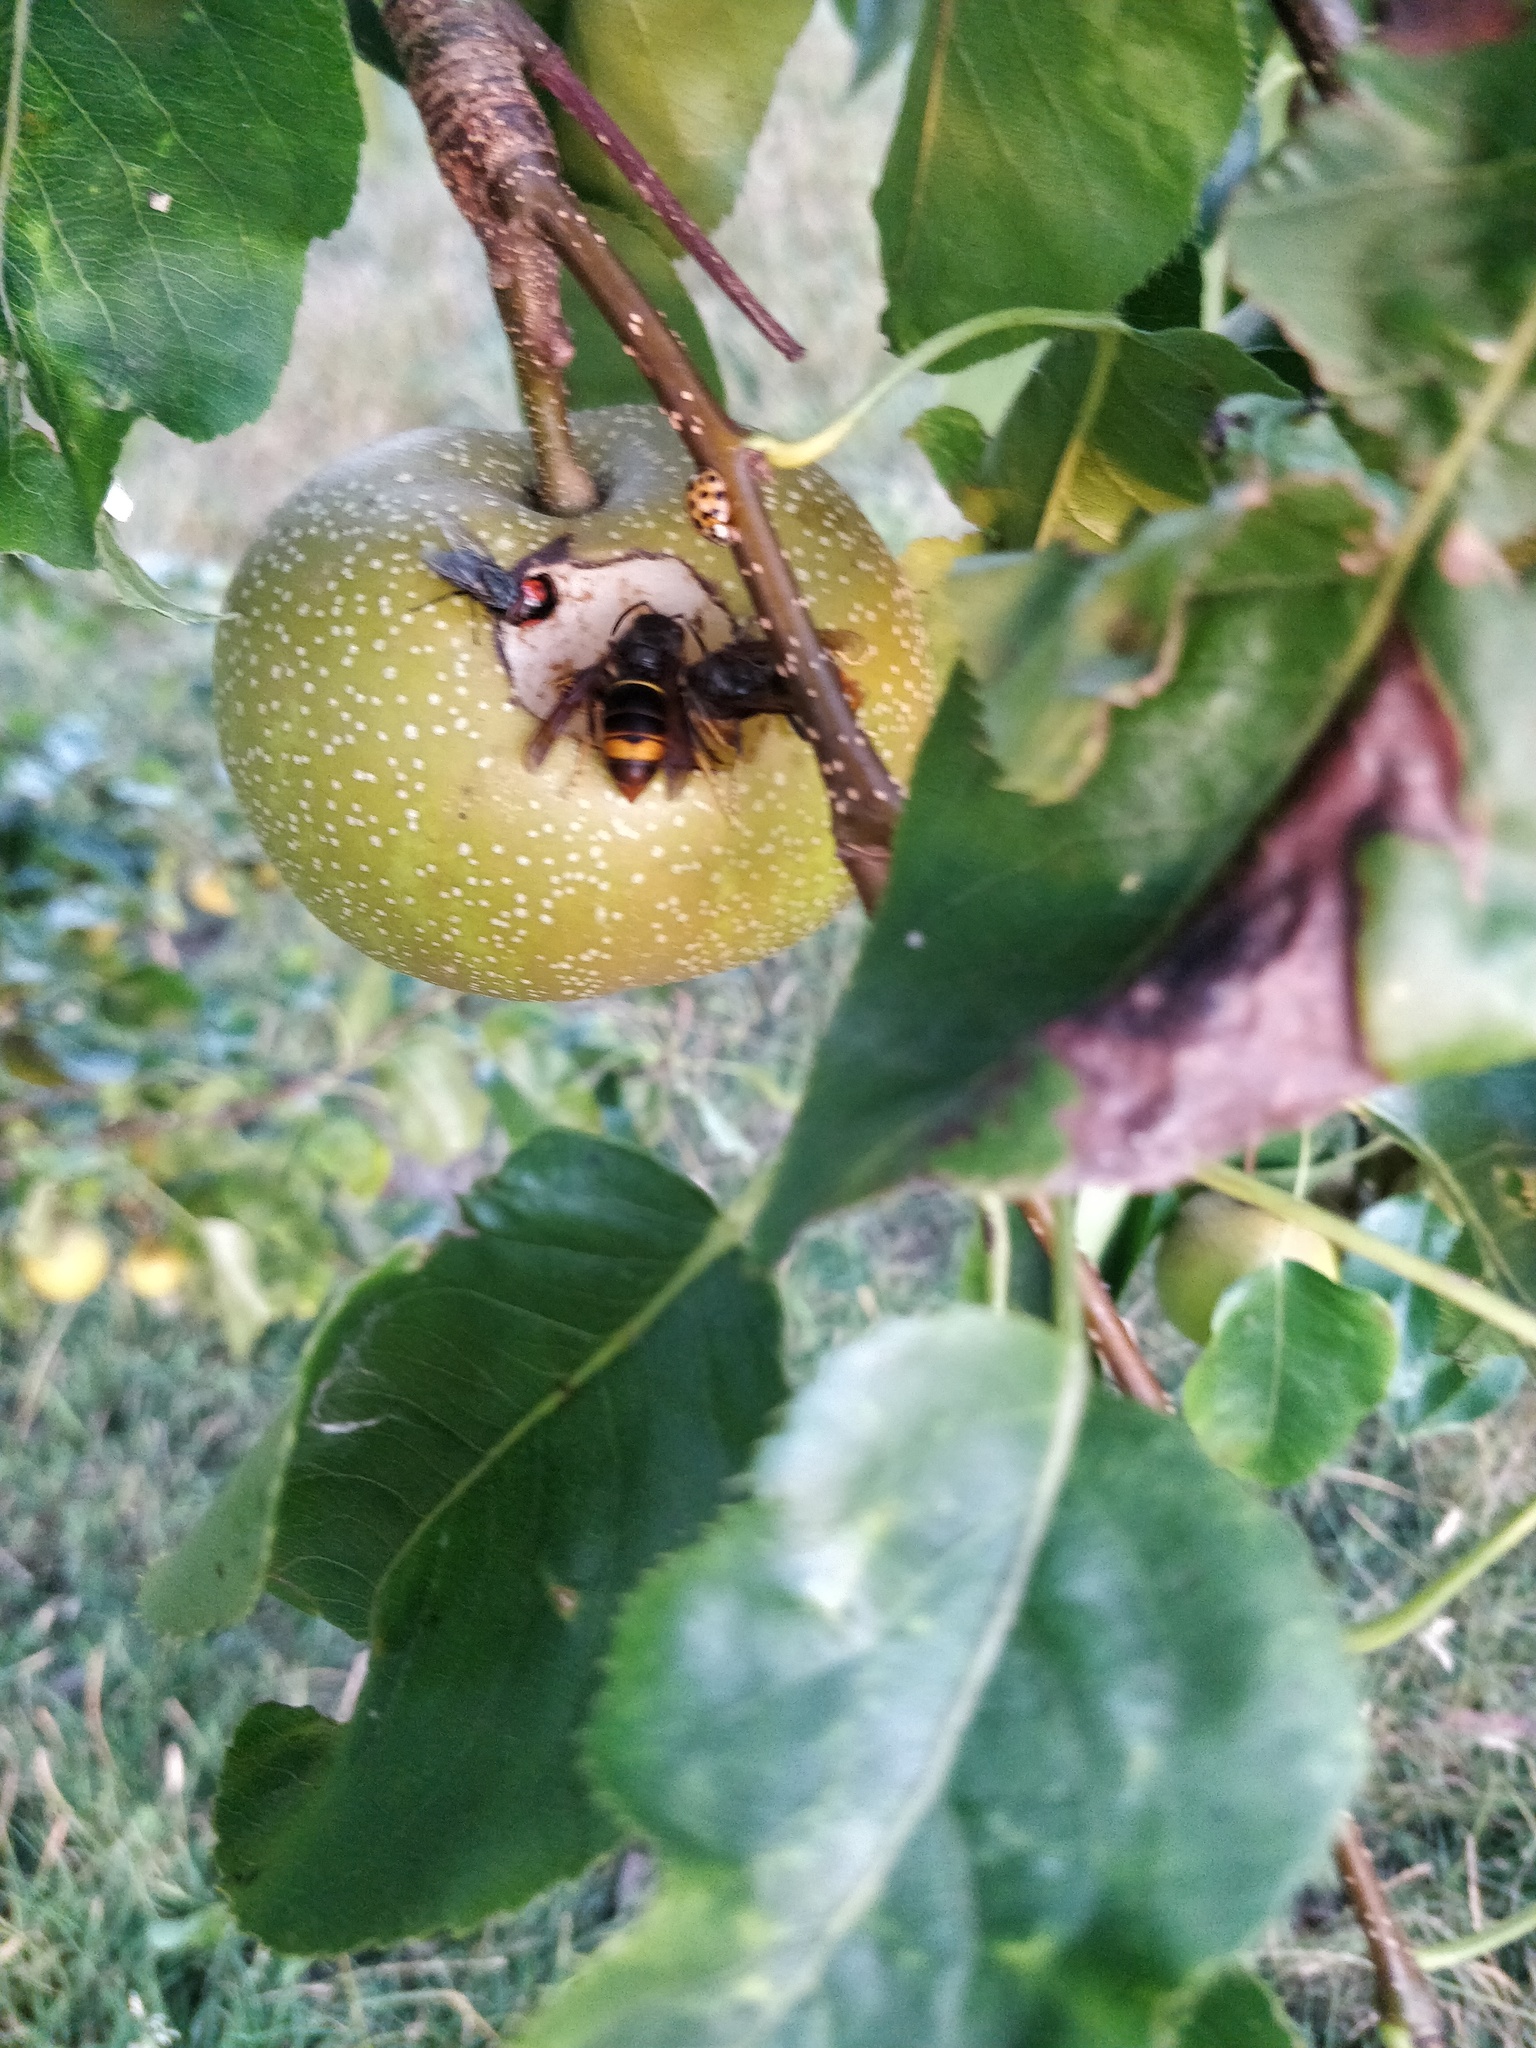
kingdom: Animalia
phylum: Arthropoda
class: Insecta
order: Hymenoptera
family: Vespidae
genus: Vespa
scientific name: Vespa velutina
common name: Asian hornet
